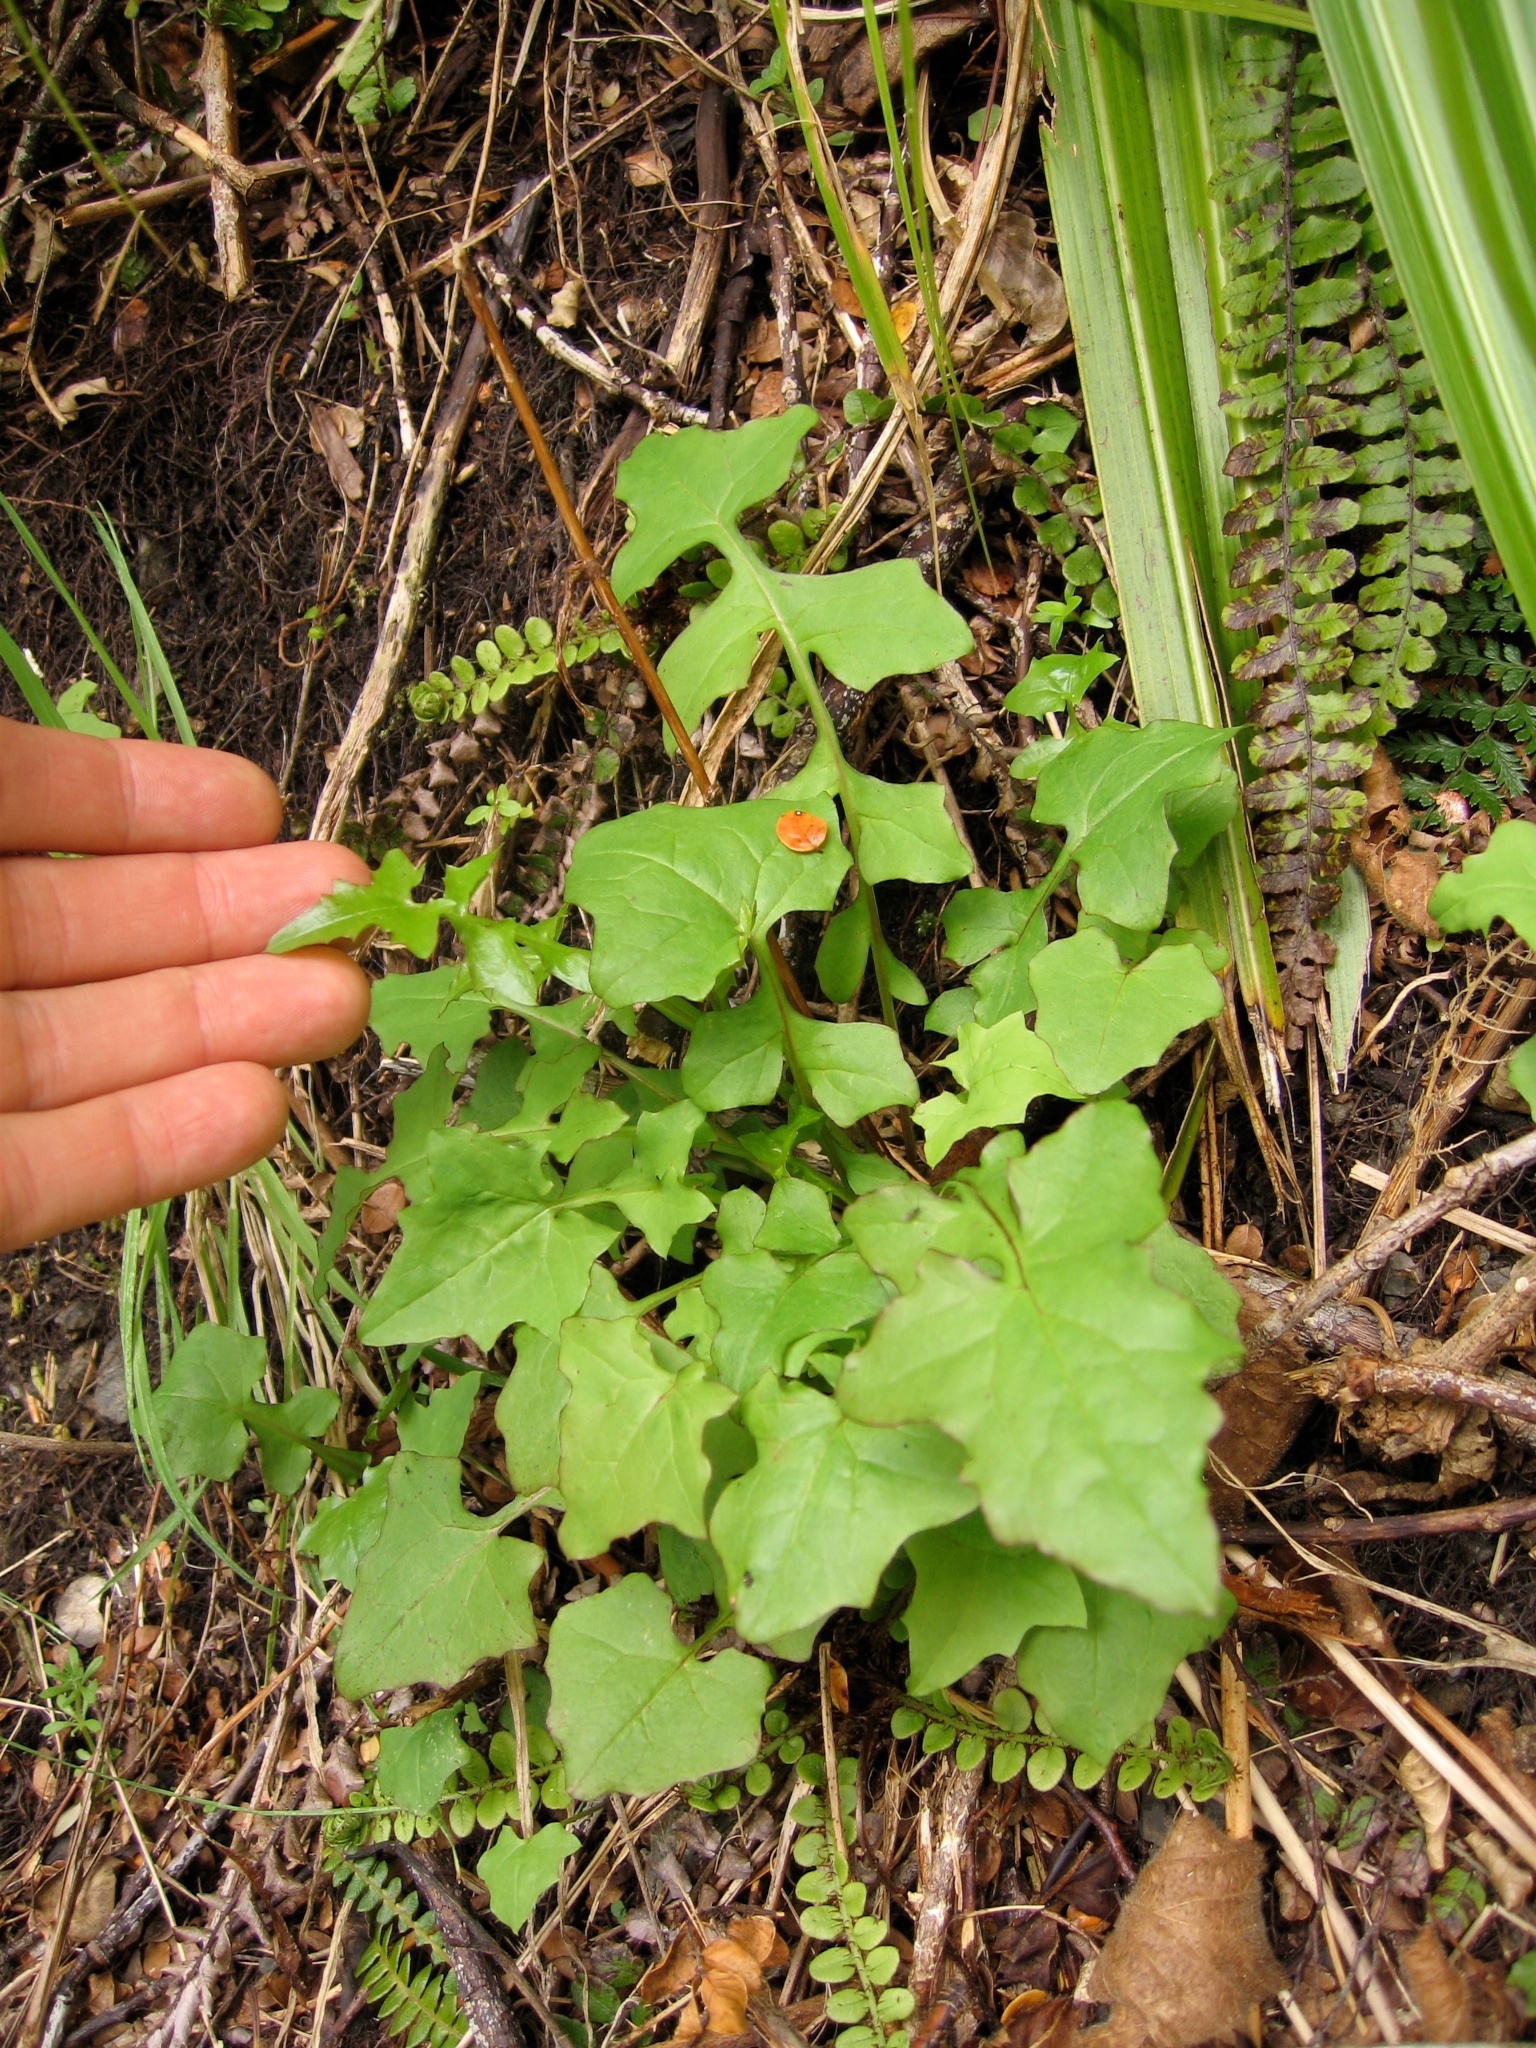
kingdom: Plantae
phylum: Tracheophyta
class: Magnoliopsida
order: Asterales
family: Asteraceae
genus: Mycelis
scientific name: Mycelis muralis
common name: Wall lettuce
